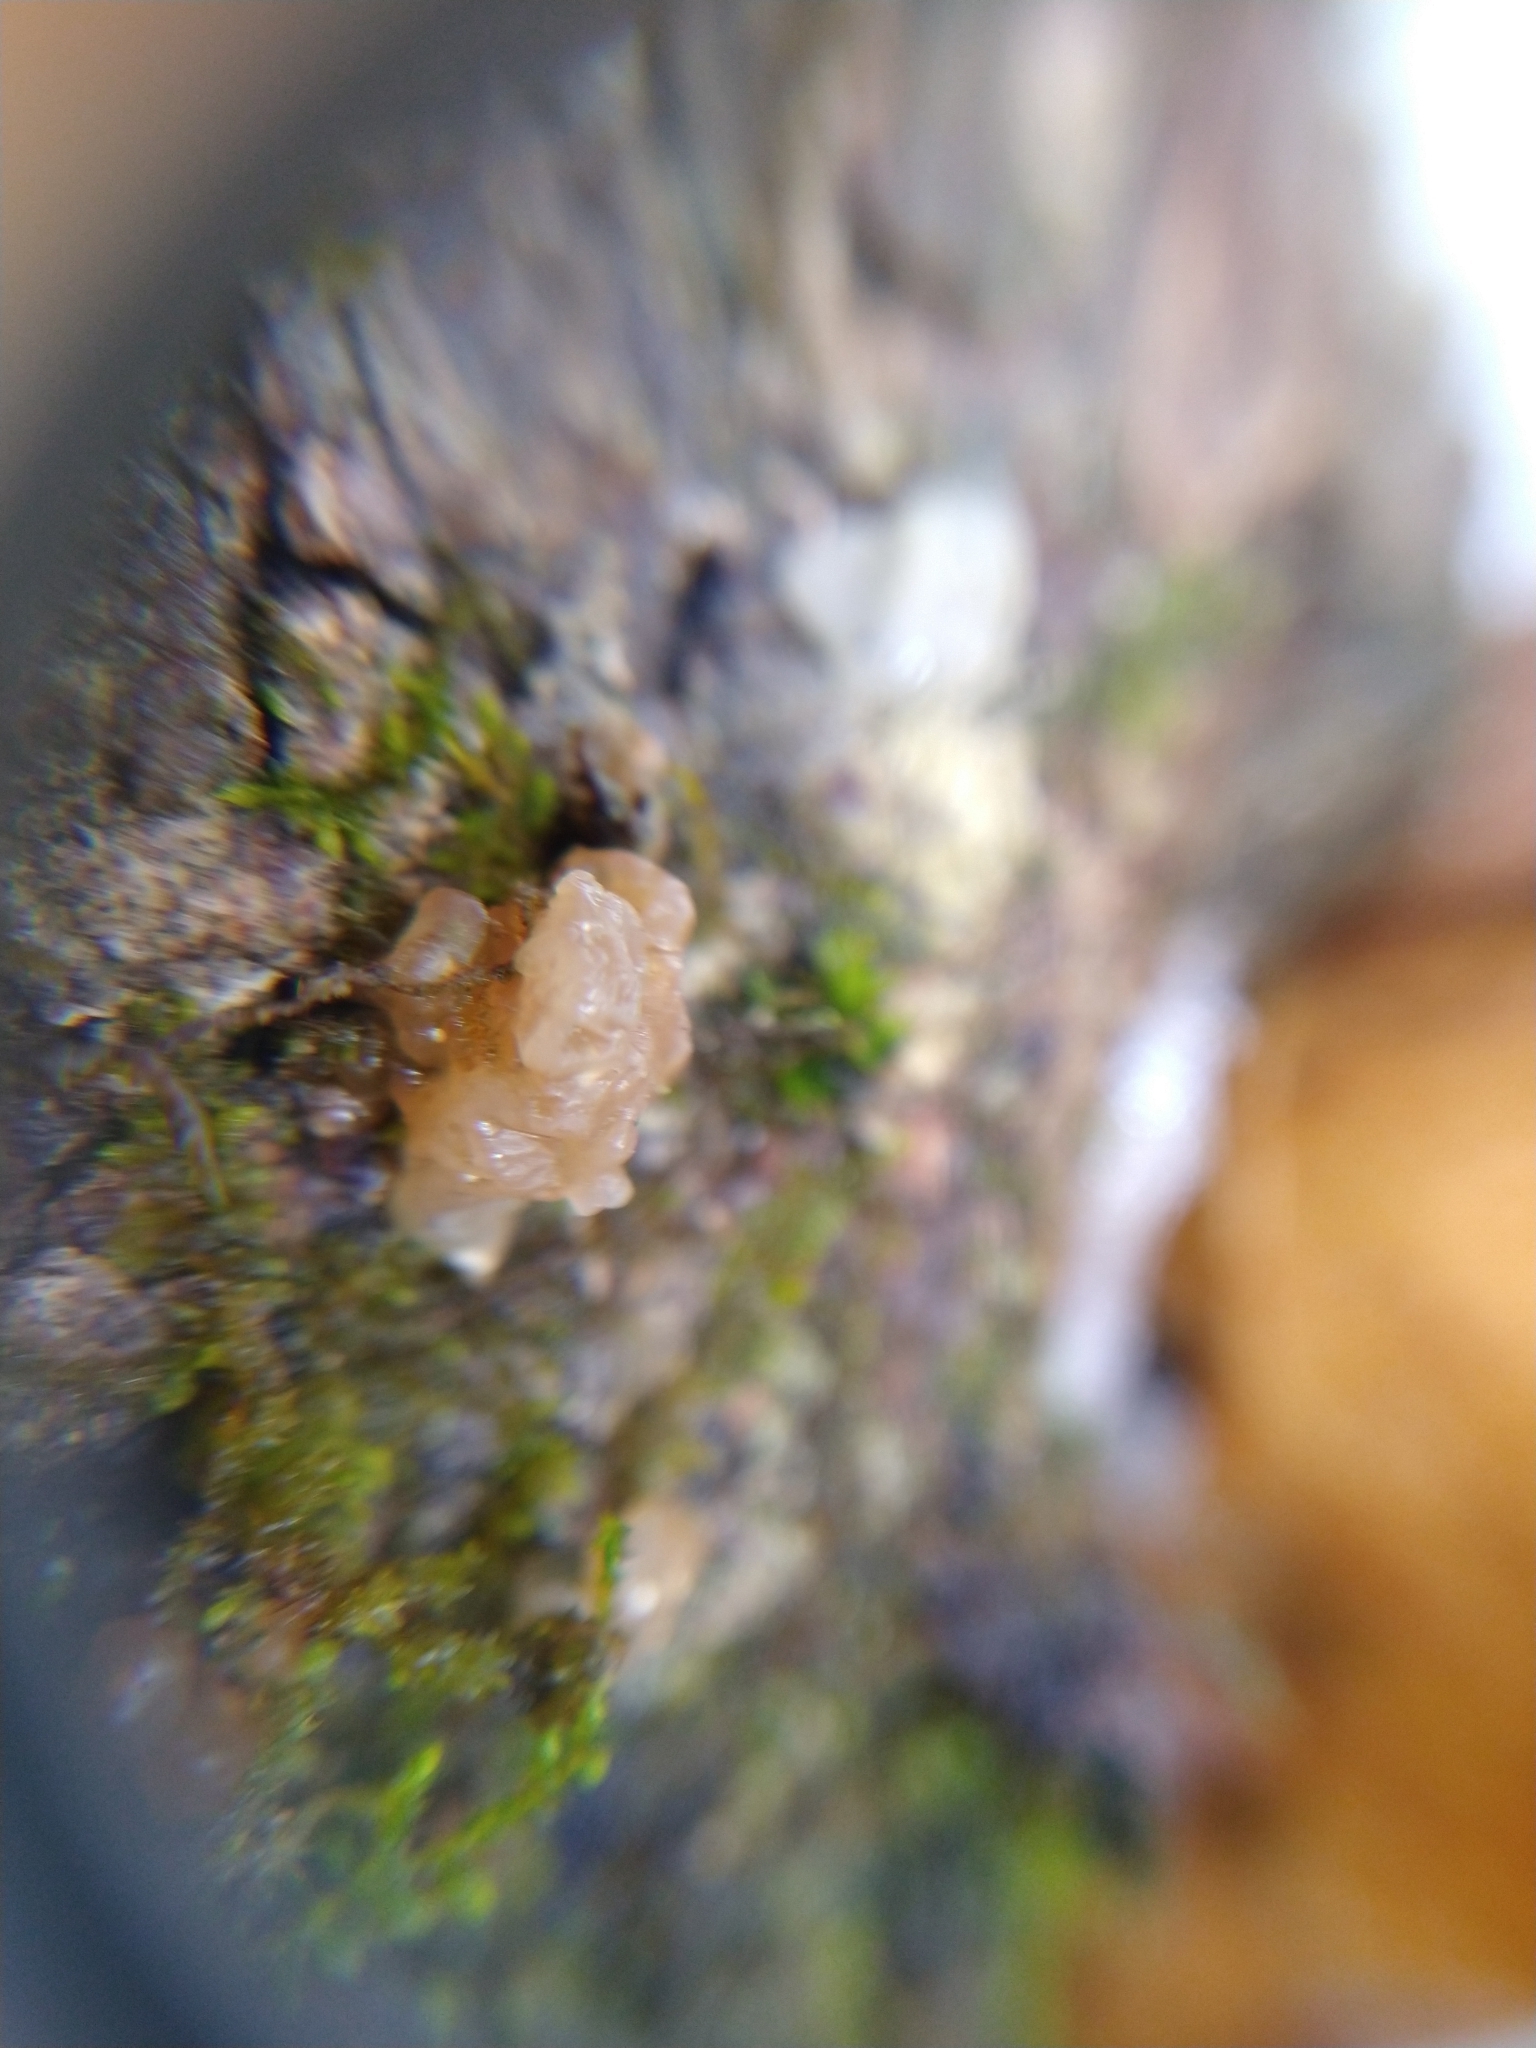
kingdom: Fungi
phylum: Basidiomycota
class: Agaricomycetes
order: Auriculariales
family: Hyaloriaceae
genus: Myxarium
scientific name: Myxarium nucleatum
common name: Crystal brain fungus
